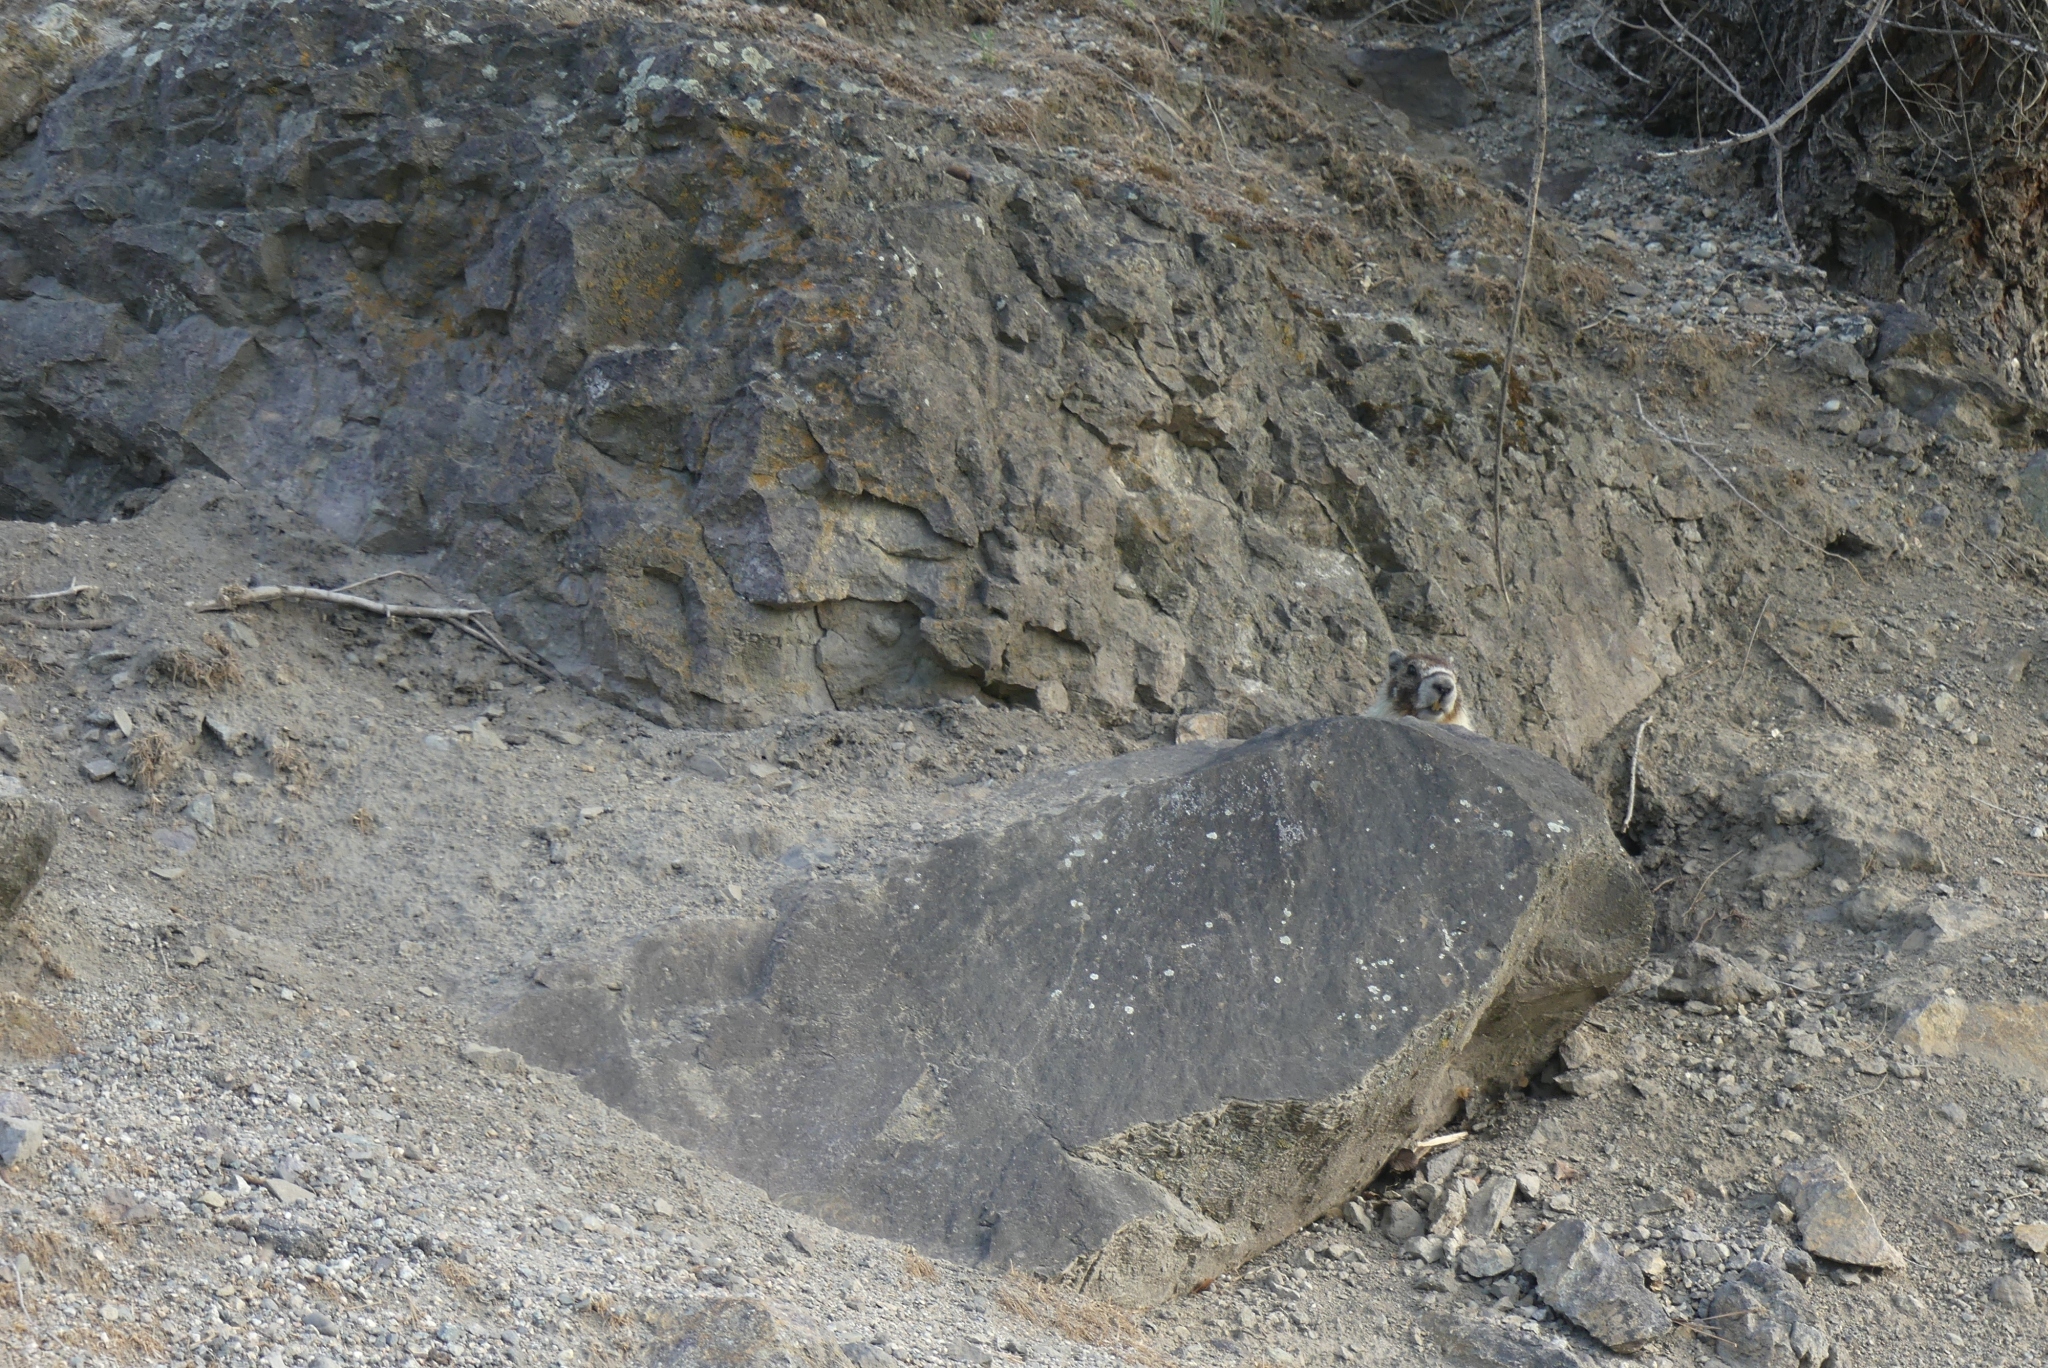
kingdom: Animalia
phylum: Chordata
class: Mammalia
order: Rodentia
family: Sciuridae
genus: Marmota
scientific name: Marmota flaviventris
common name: Yellow-bellied marmot
